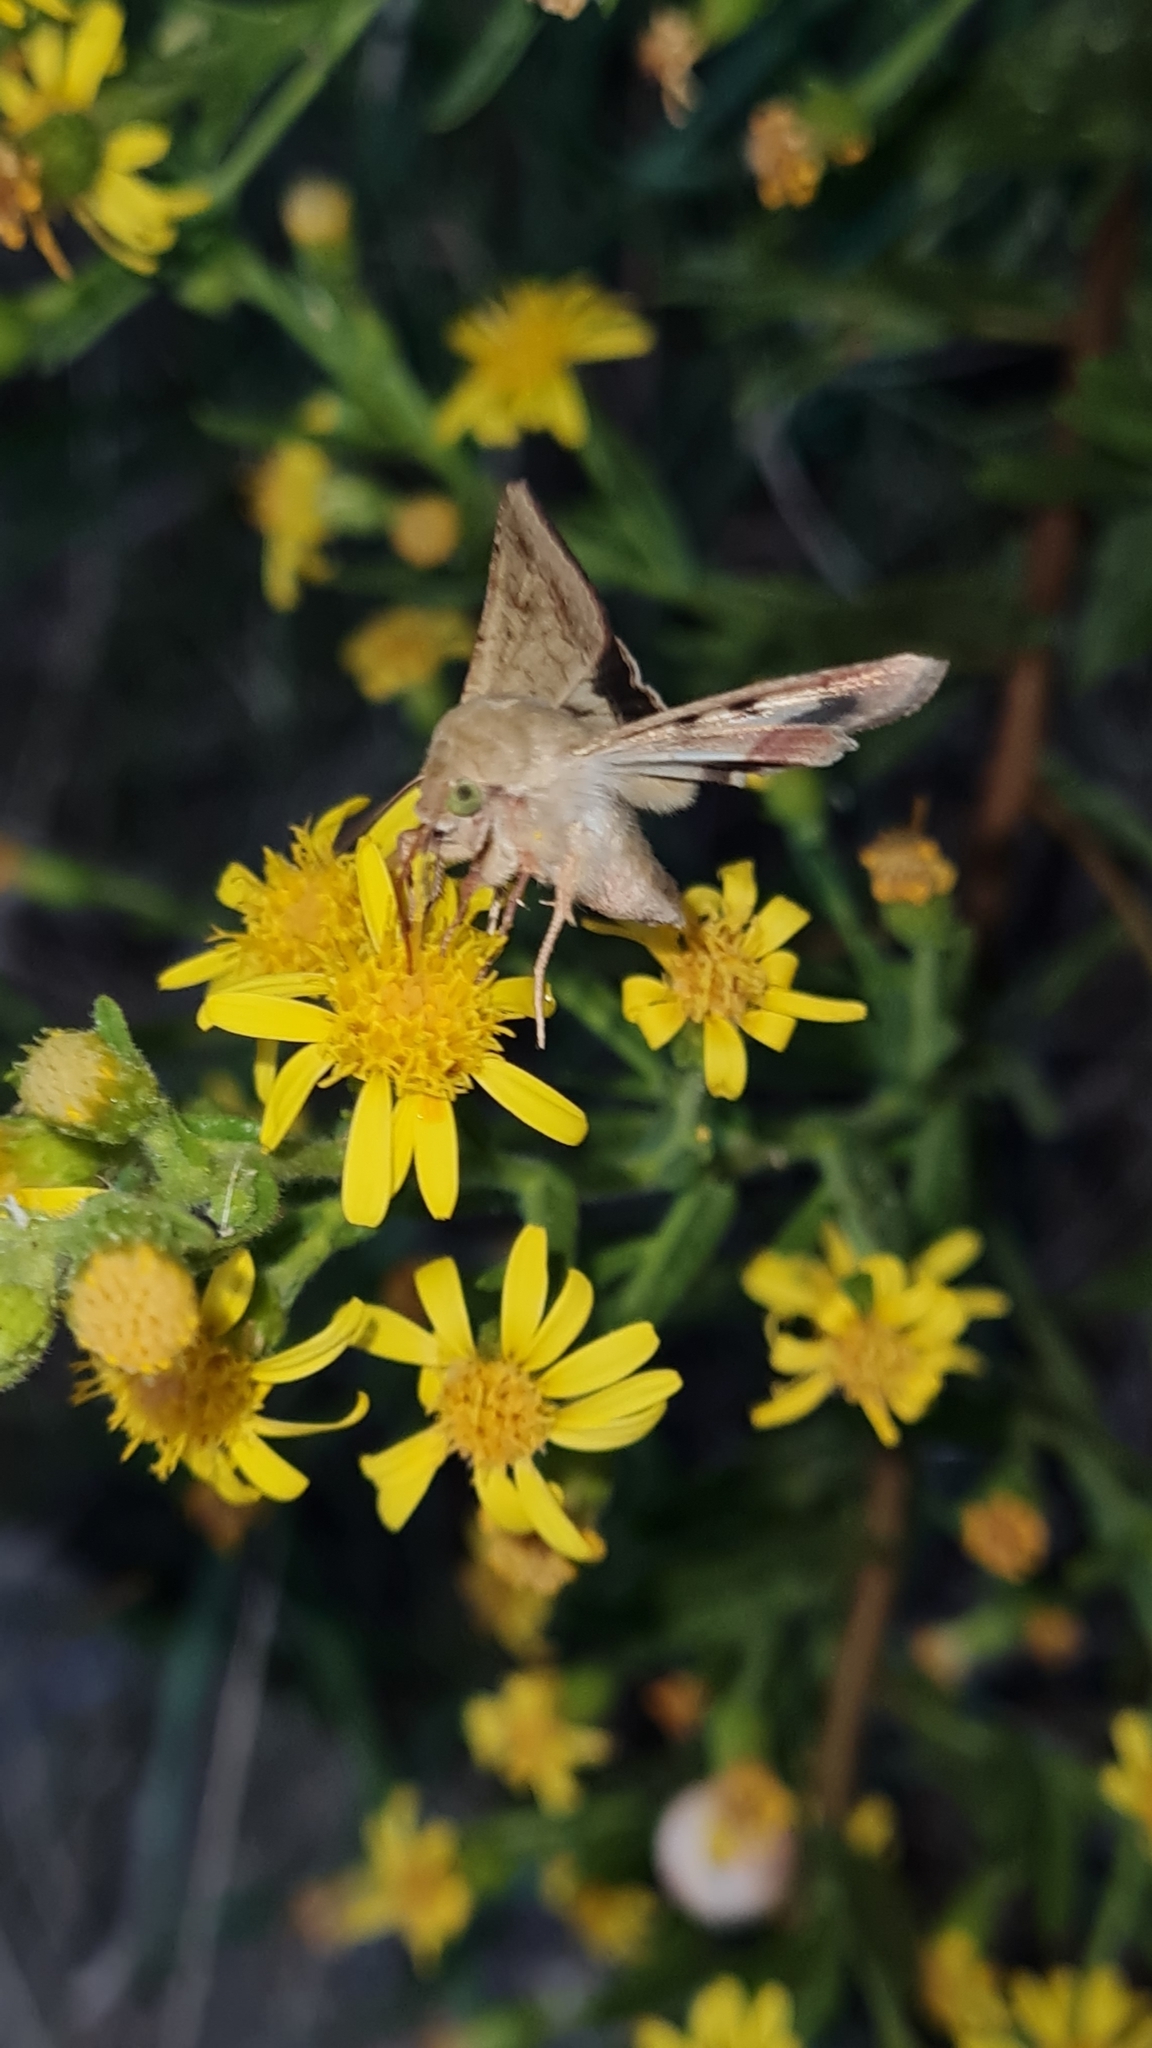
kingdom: Animalia
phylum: Arthropoda
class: Insecta
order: Lepidoptera
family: Noctuidae
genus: Helicoverpa
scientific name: Helicoverpa armigera
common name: Cotton bollworm
